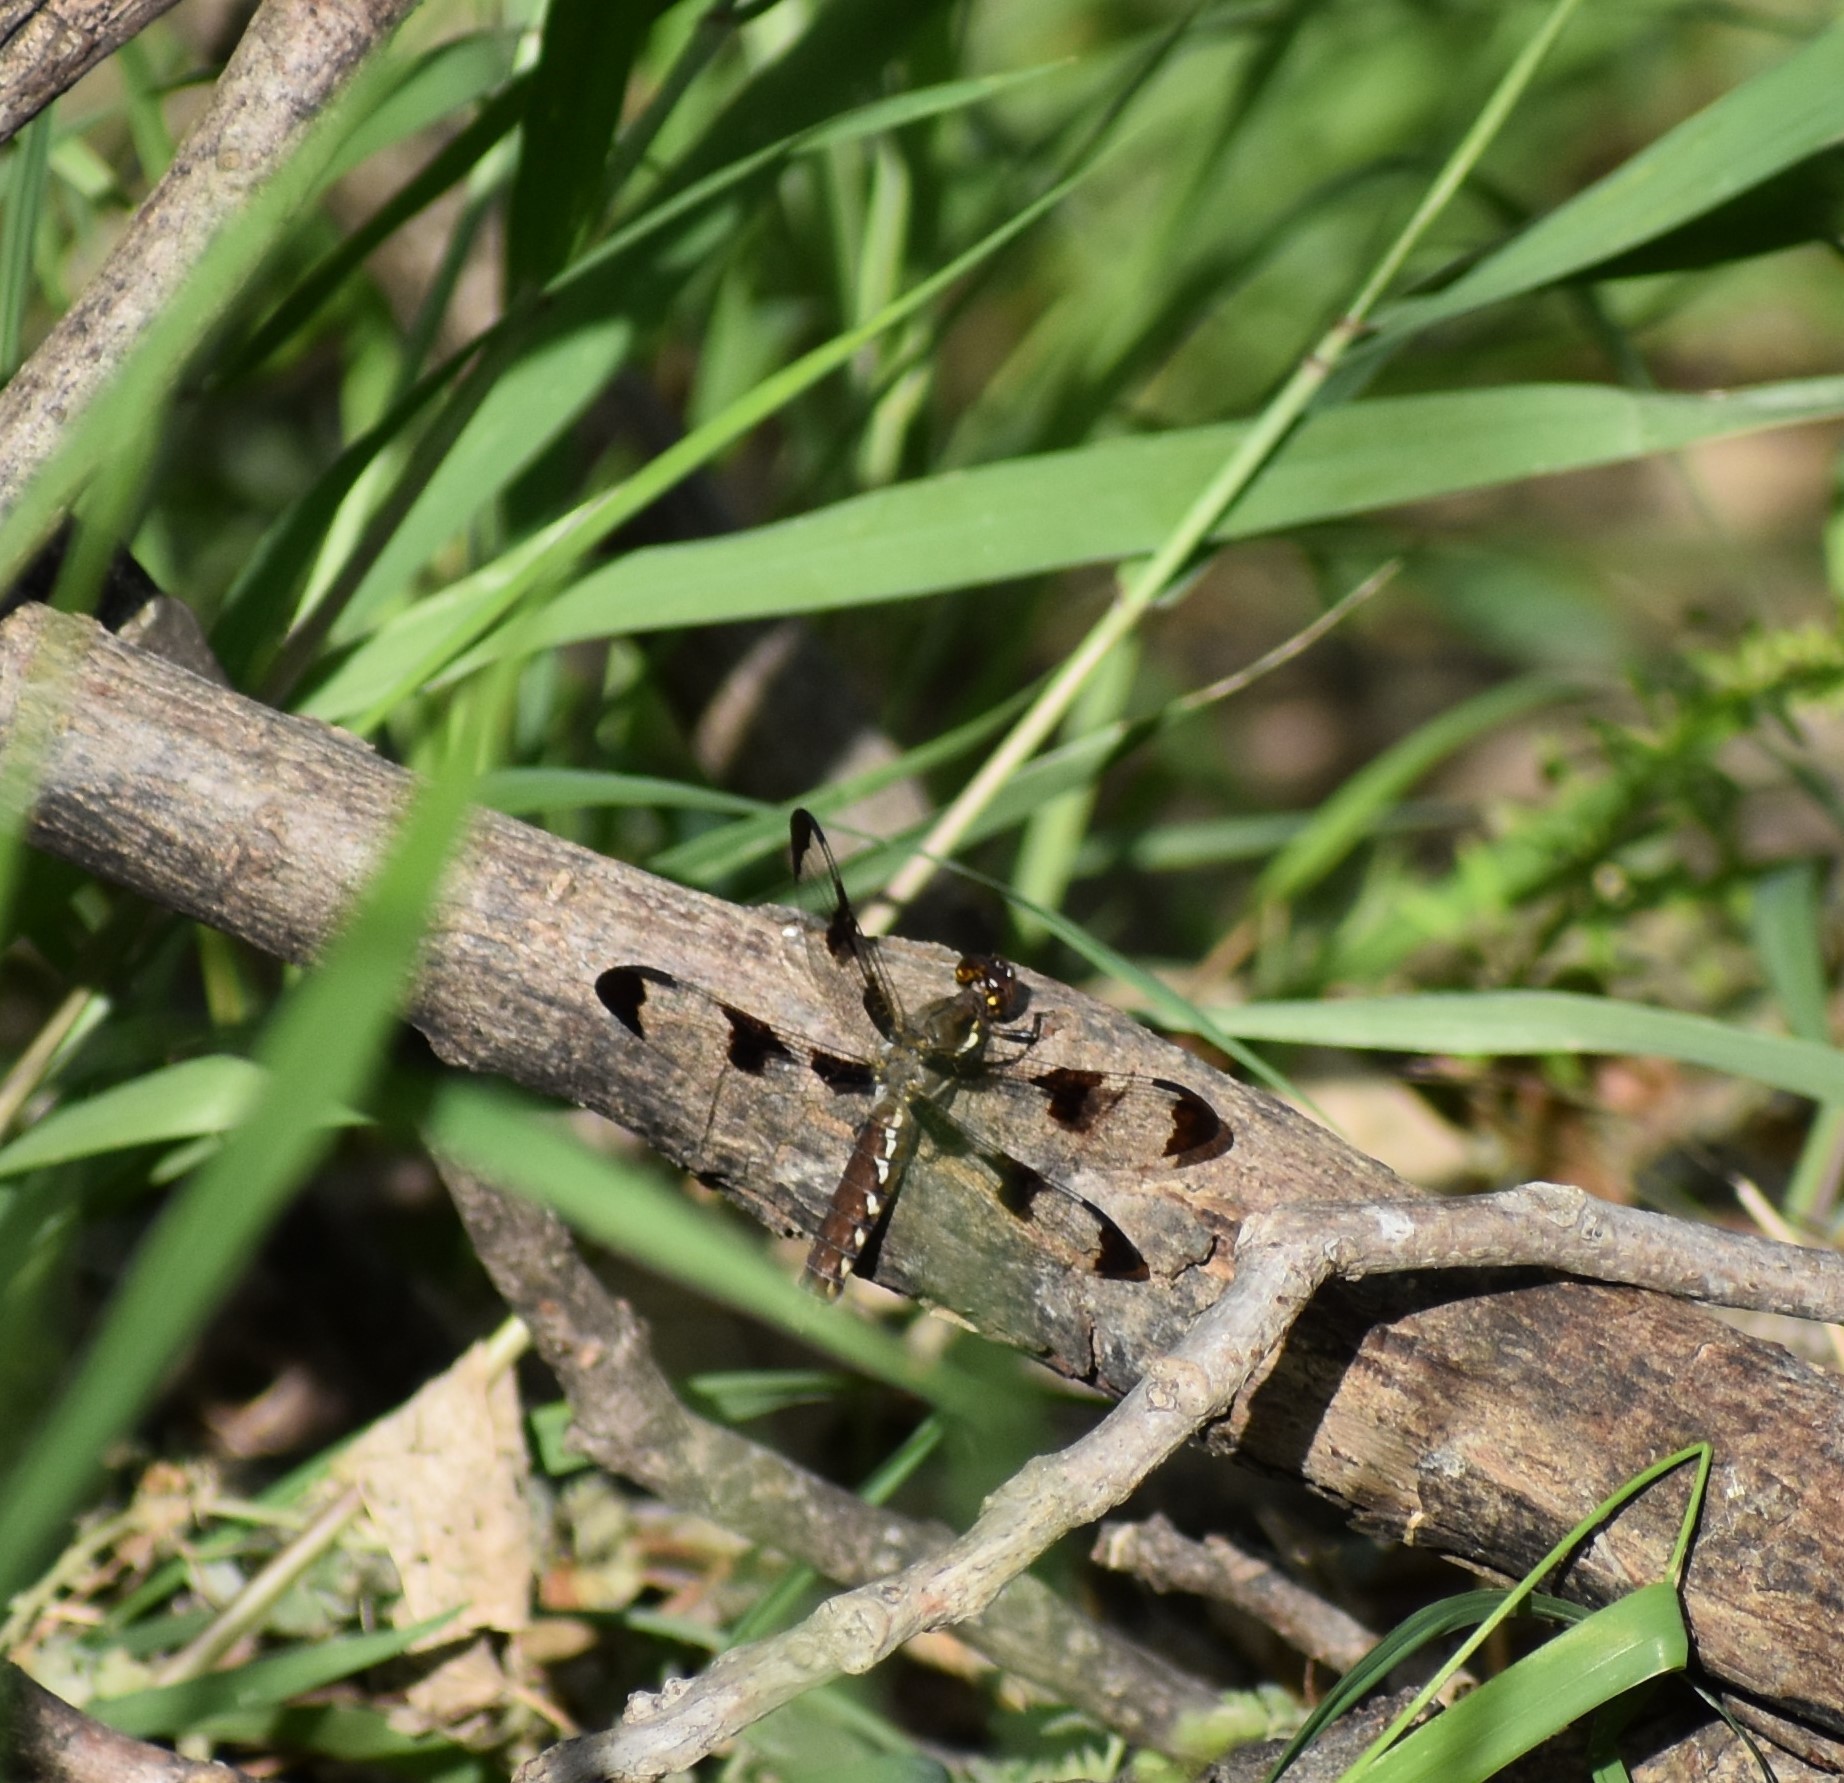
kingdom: Animalia
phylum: Arthropoda
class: Insecta
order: Odonata
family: Libellulidae
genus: Plathemis
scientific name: Plathemis lydia
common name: Common whitetail
